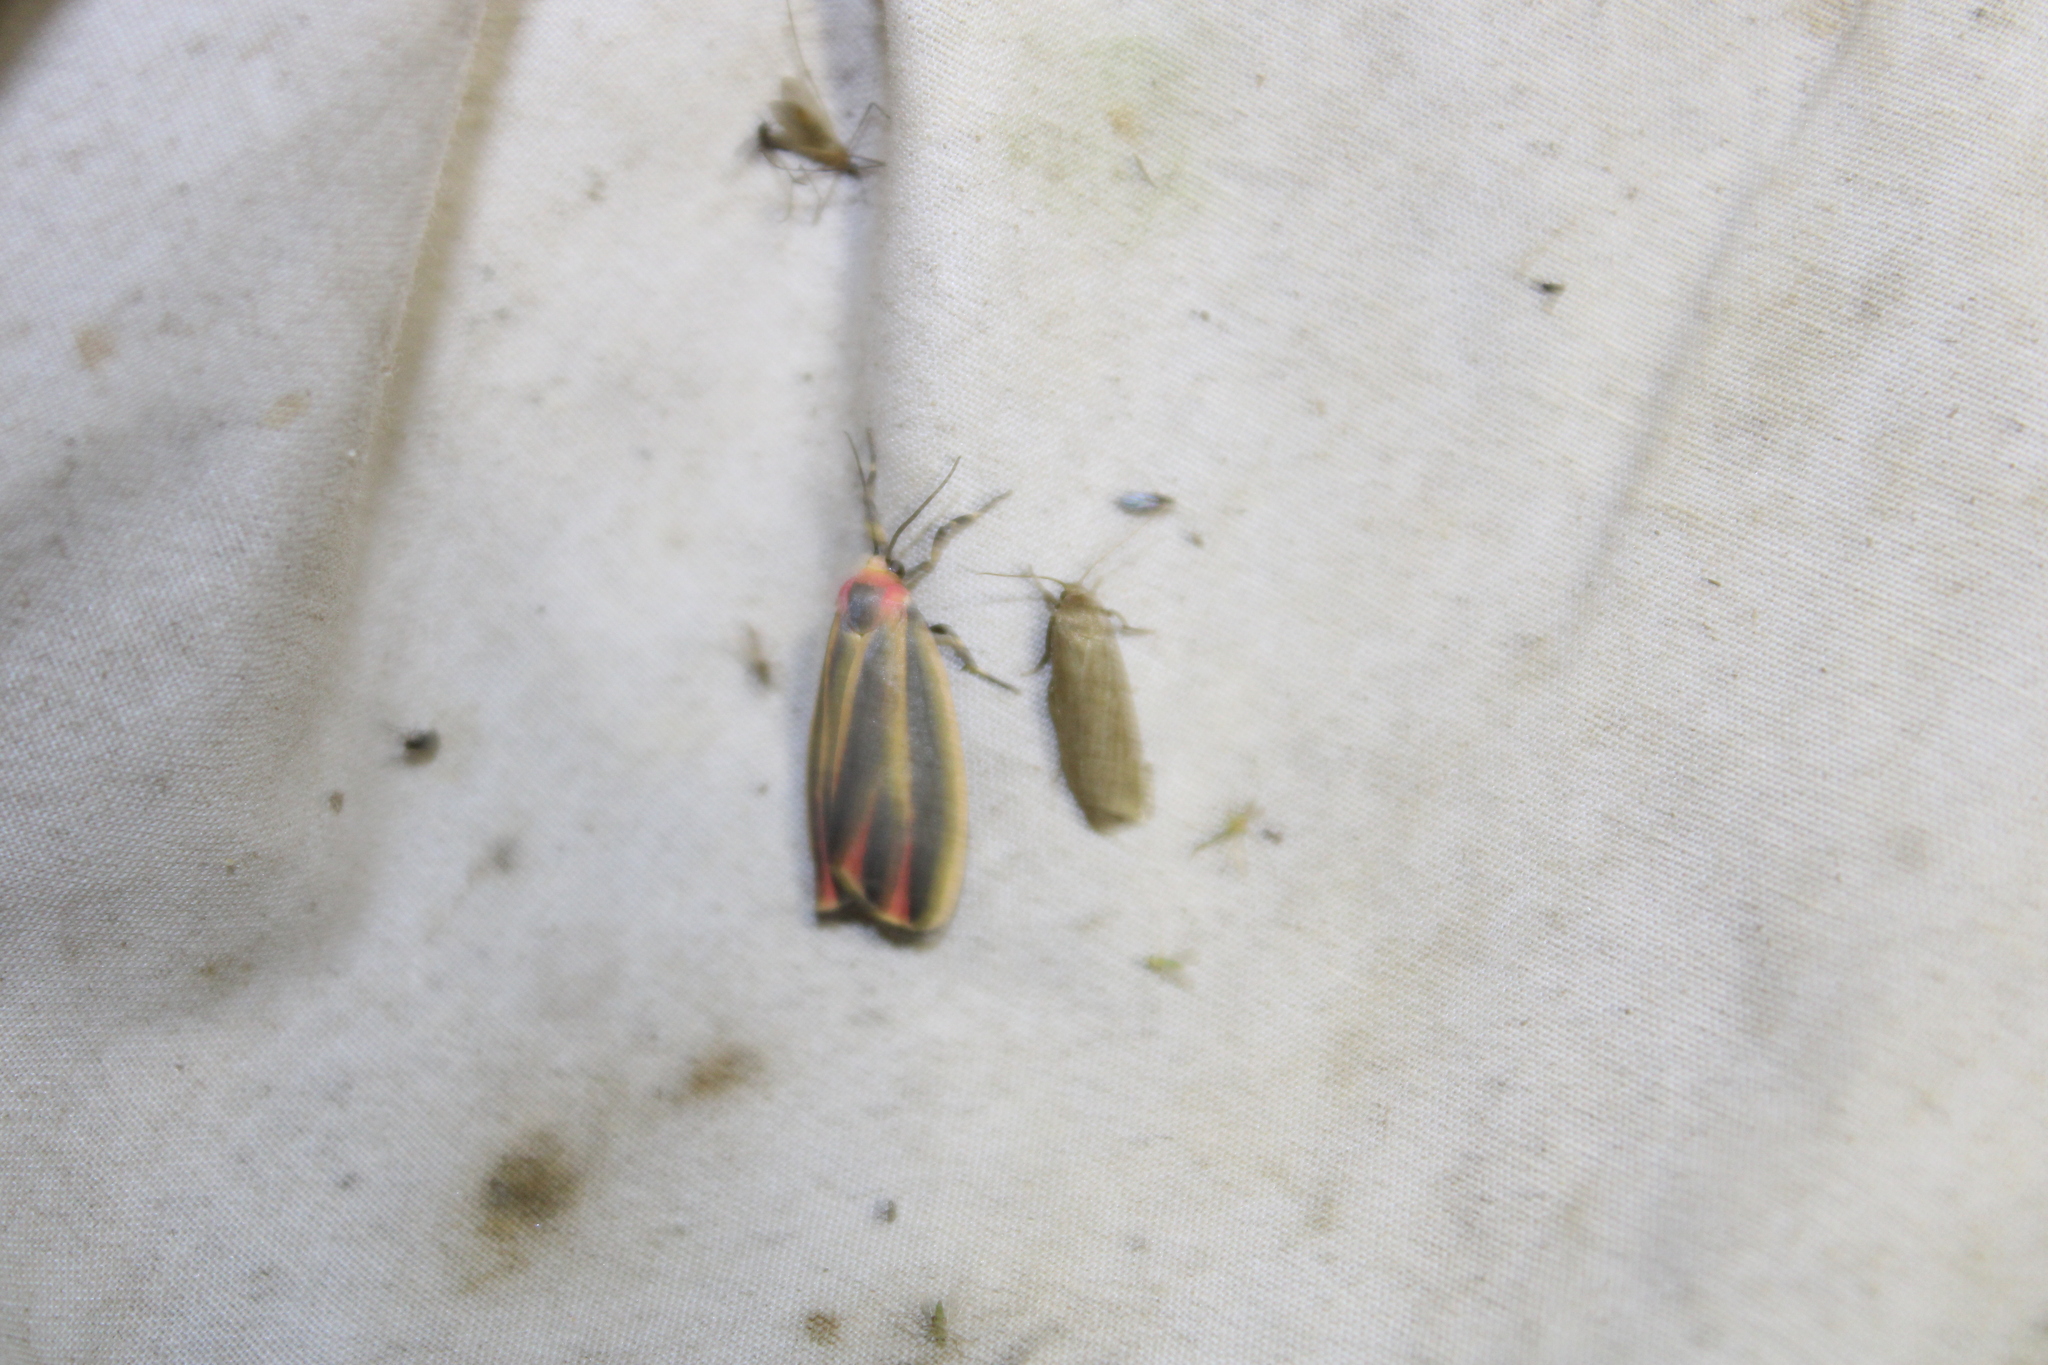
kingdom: Animalia
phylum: Arthropoda
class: Insecta
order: Lepidoptera
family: Erebidae
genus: Hypoprepia
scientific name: Hypoprepia fucosa
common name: Painted lichen moth
